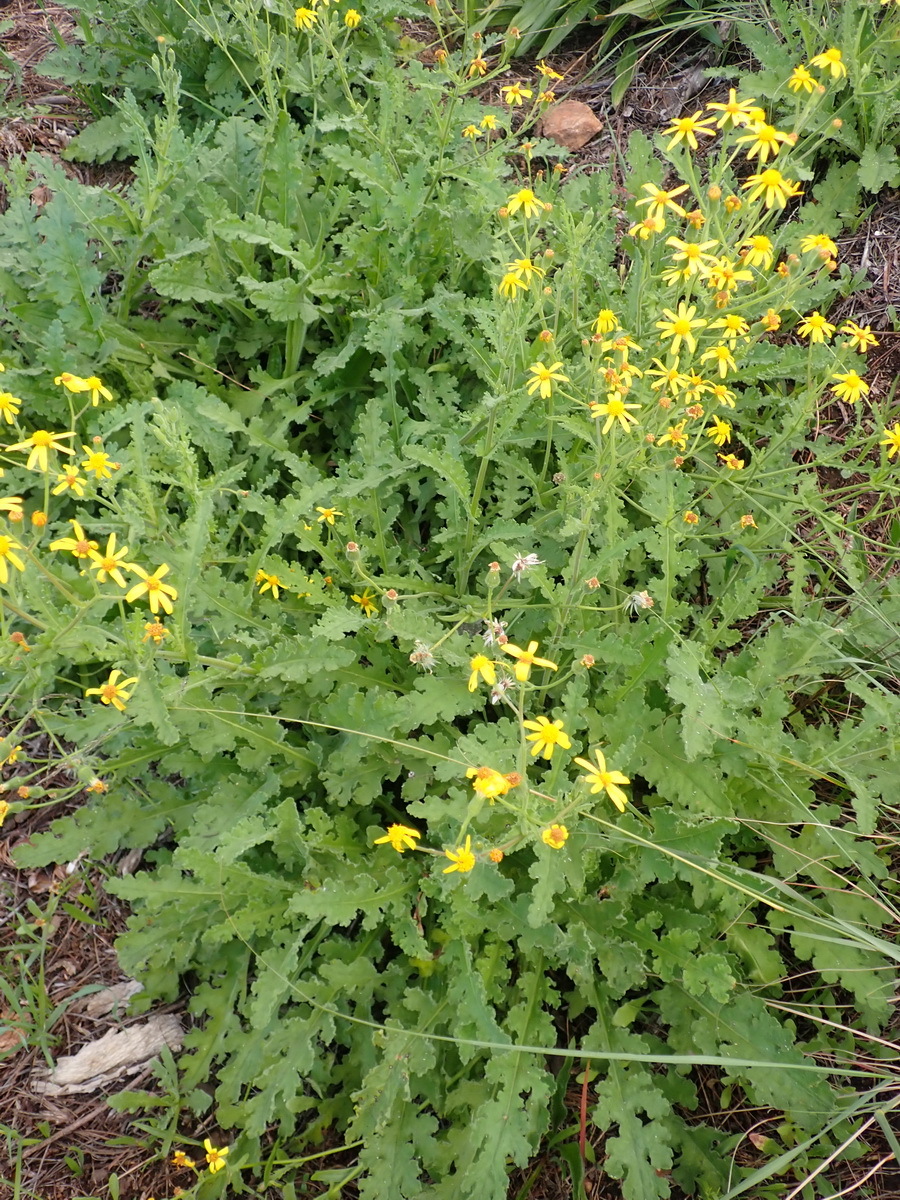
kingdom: Plantae
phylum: Tracheophyta
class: Magnoliopsida
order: Asterales
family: Asteraceae
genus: Senecio
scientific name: Senecio hastatus
